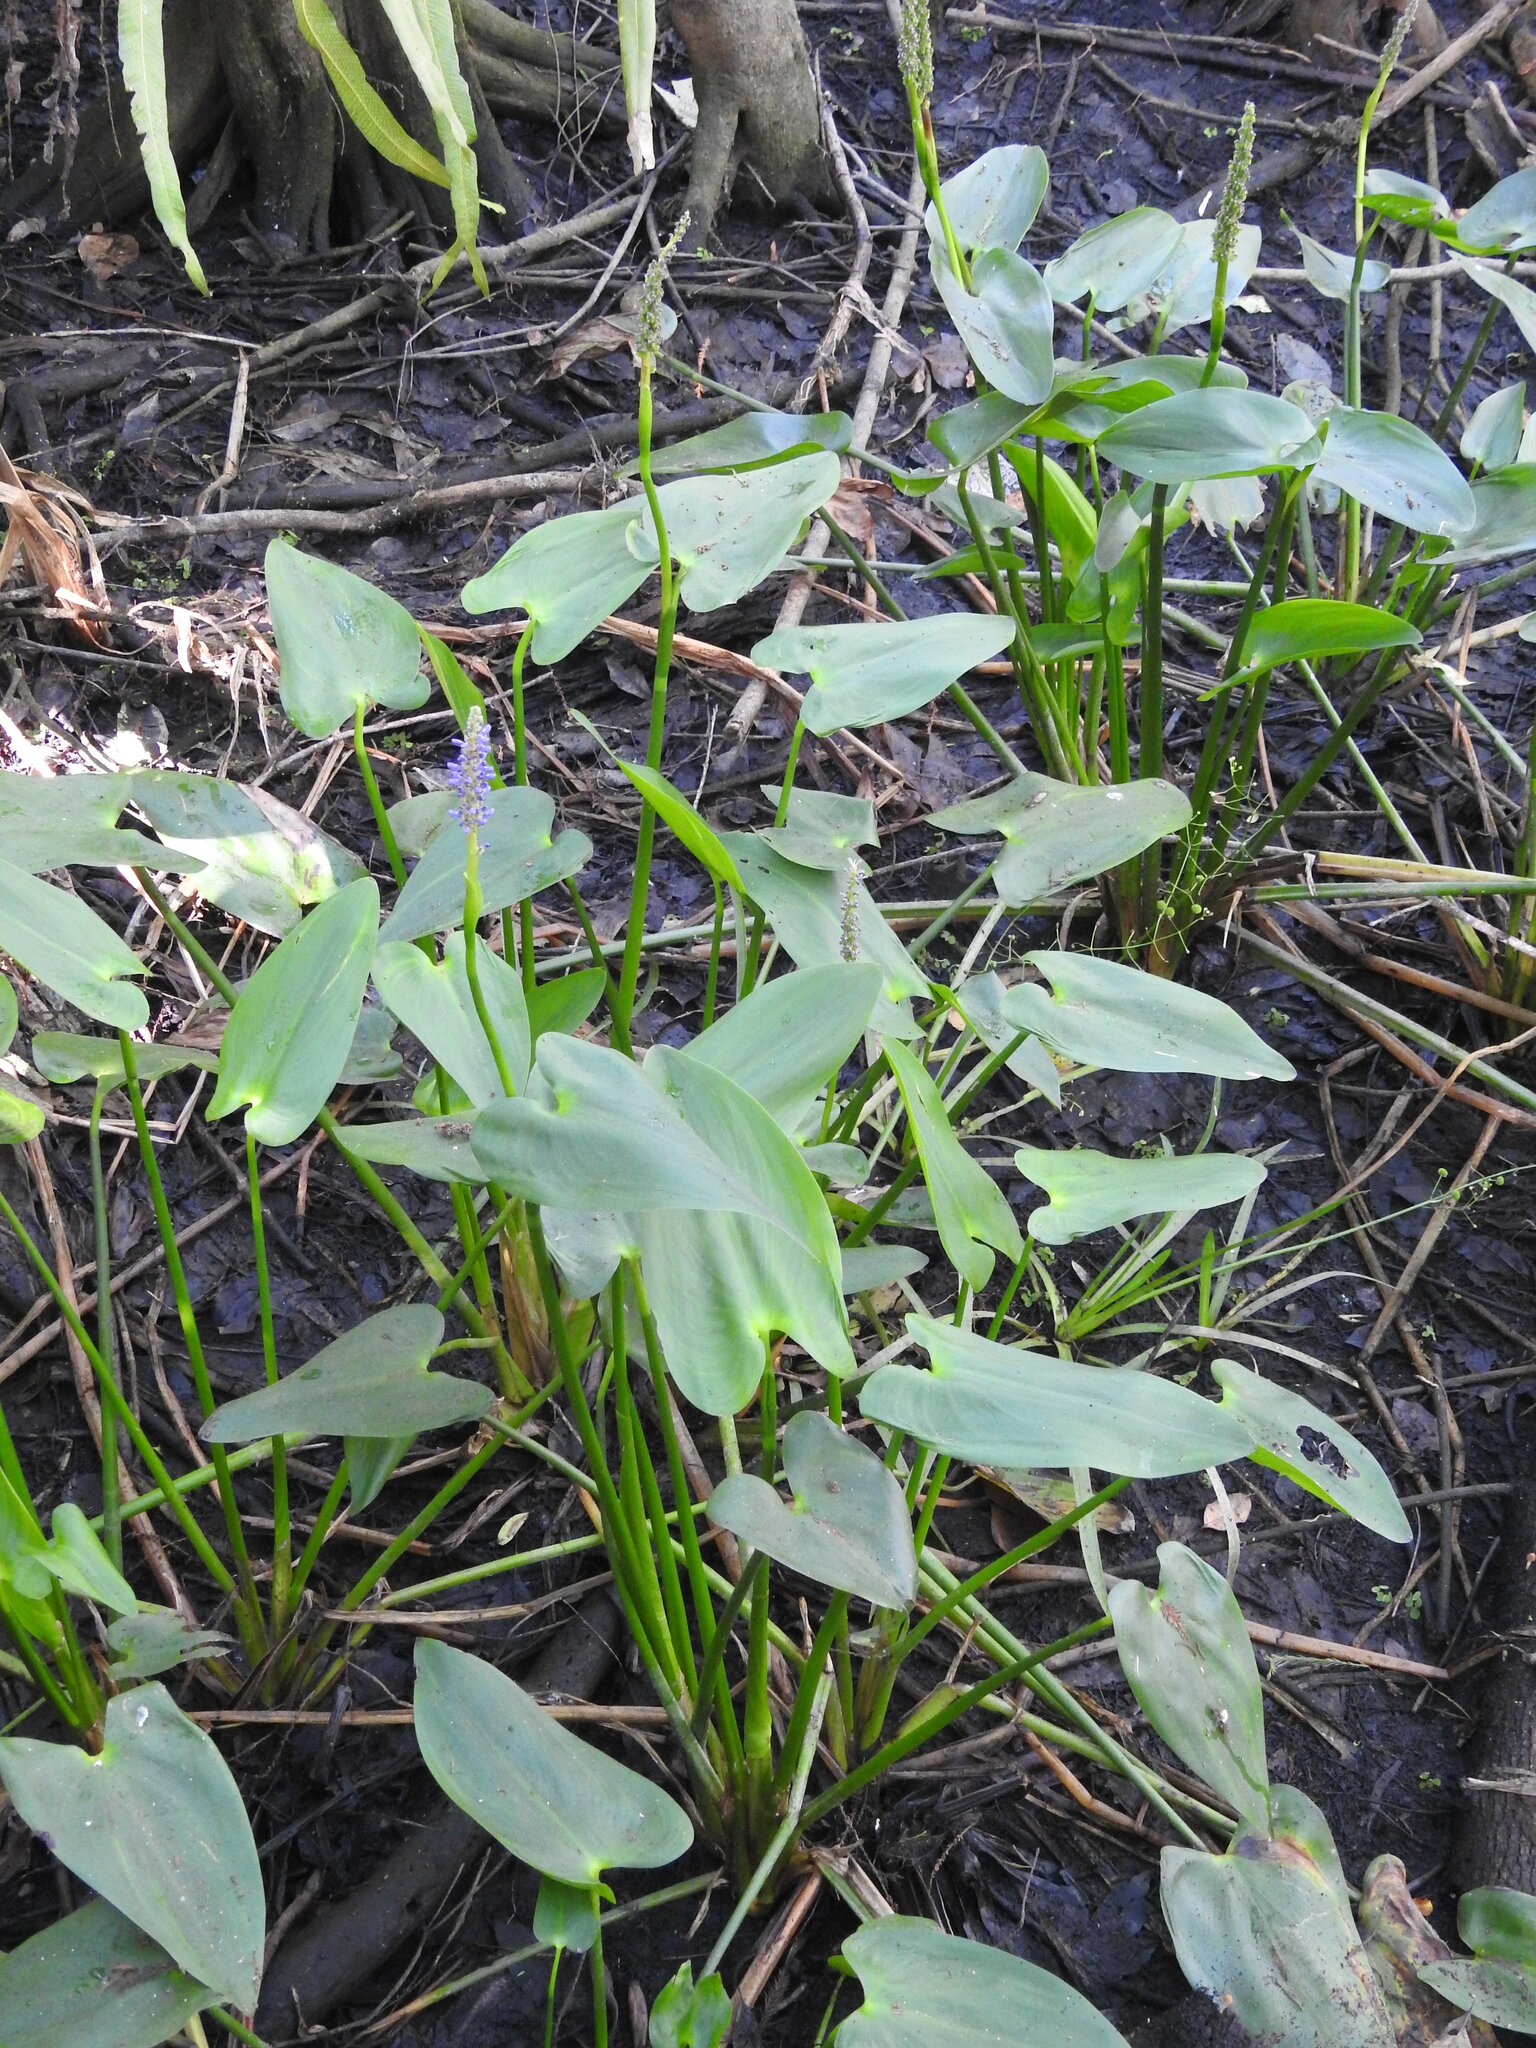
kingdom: Plantae
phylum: Tracheophyta
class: Liliopsida
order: Commelinales
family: Pontederiaceae
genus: Pontederia
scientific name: Pontederia cordata
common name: Pickerelweed
